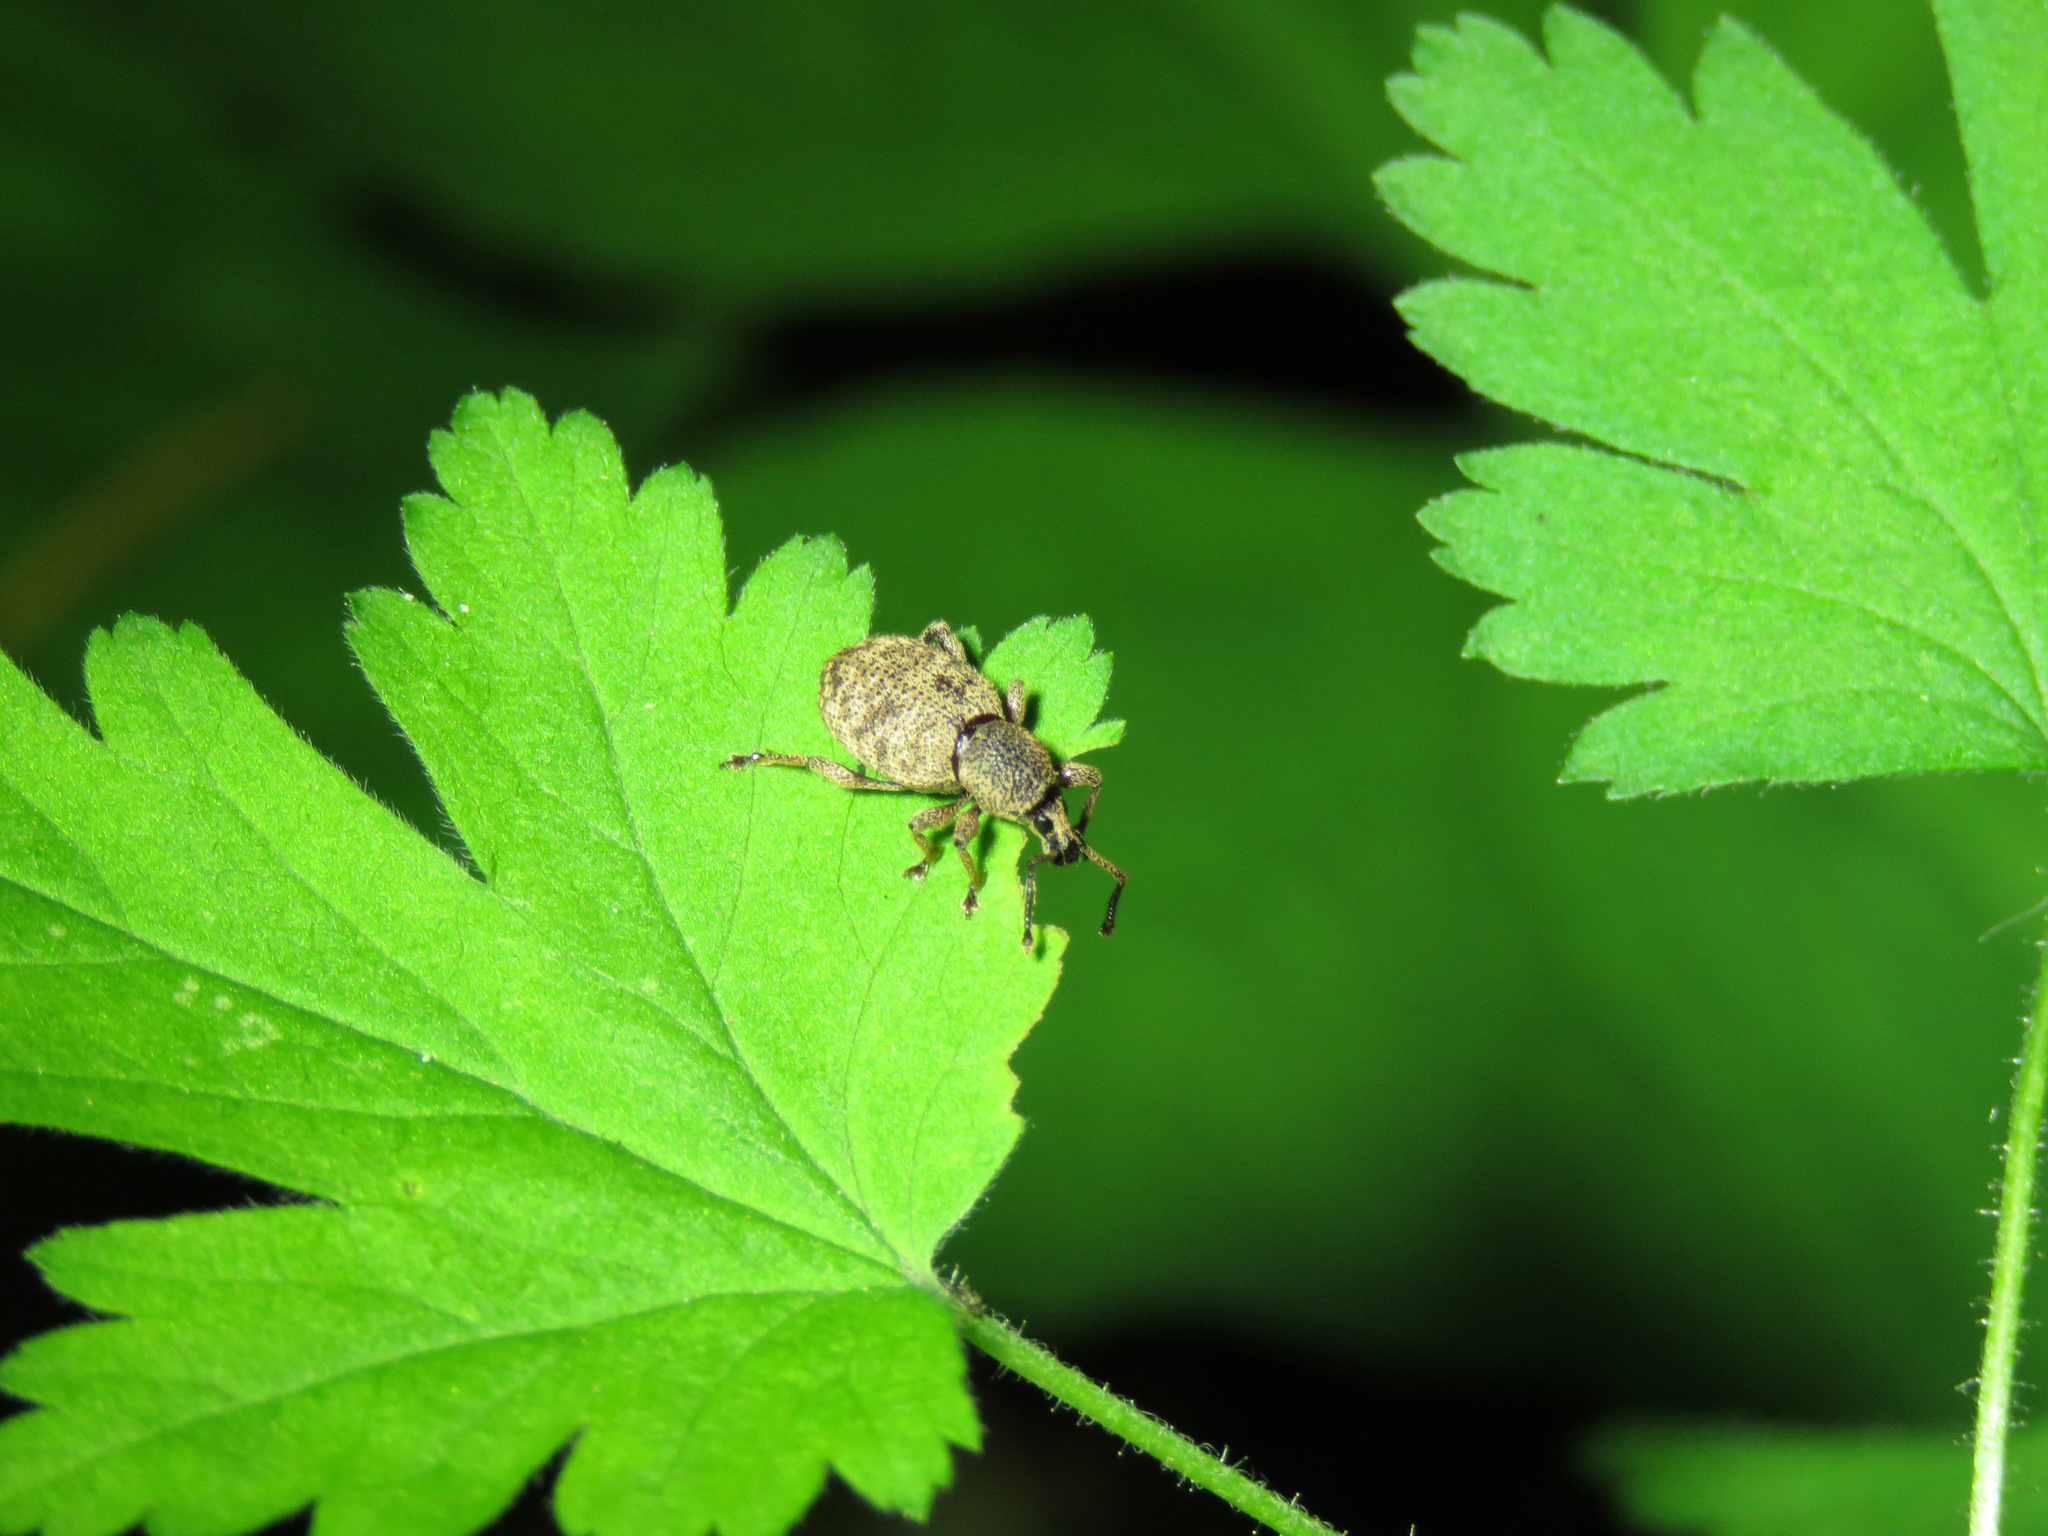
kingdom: Animalia
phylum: Arthropoda
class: Insecta
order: Coleoptera
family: Curculionidae
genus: Otiorhynchus
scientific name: Otiorhynchus singularis
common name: Clay-coloured weevil
